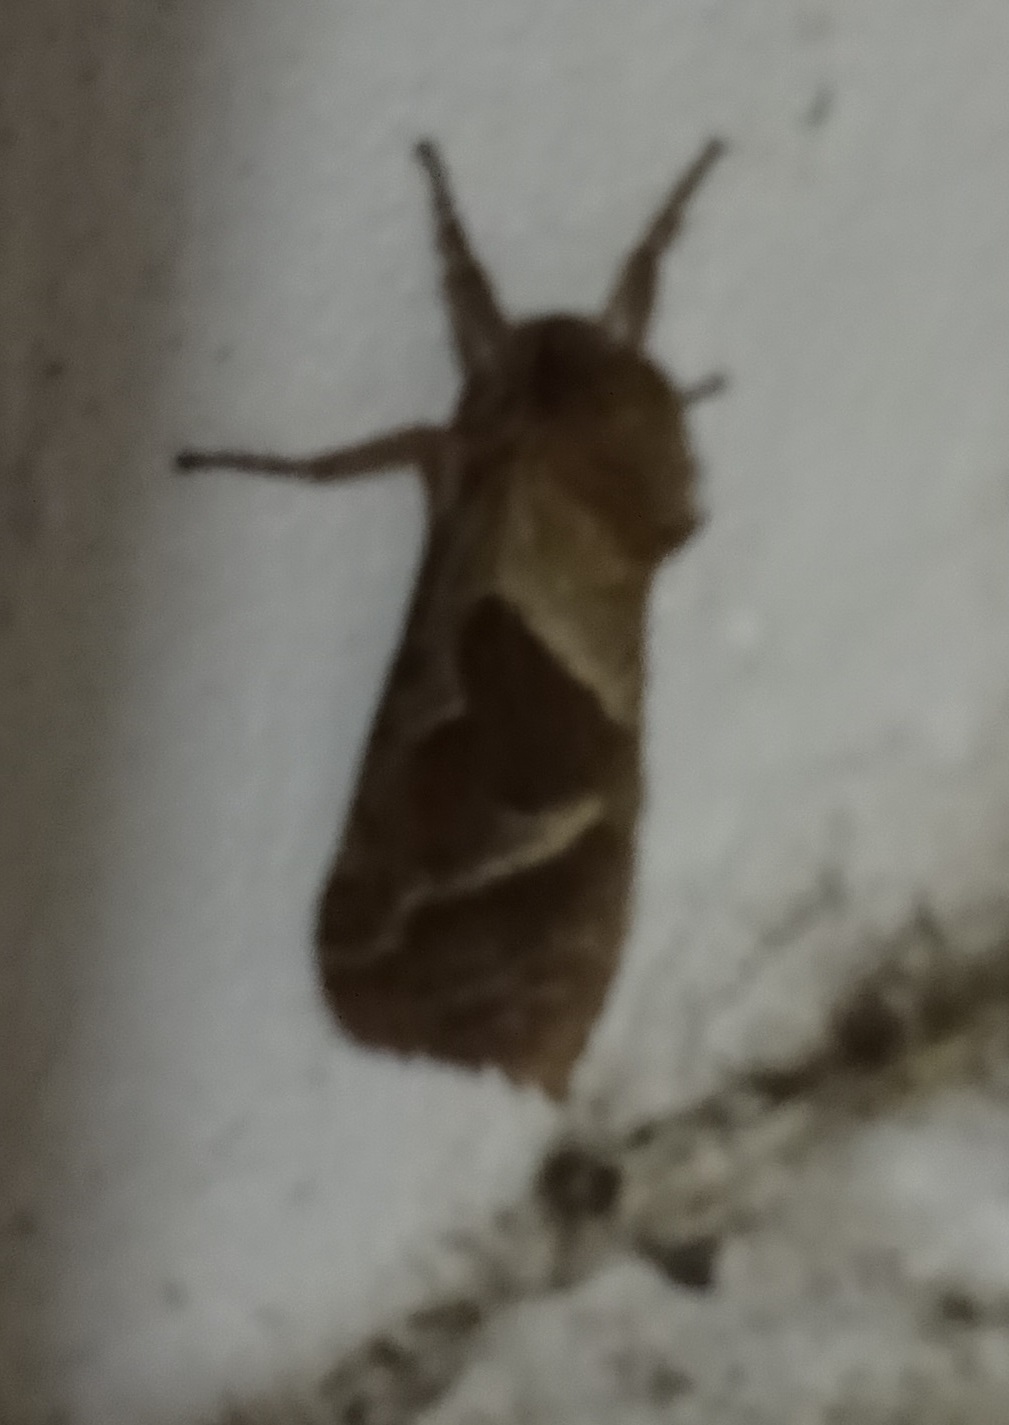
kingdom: Animalia
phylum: Arthropoda
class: Insecta
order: Lepidoptera
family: Hepialidae
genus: Triodia
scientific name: Triodia sylvina
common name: Orange swift
